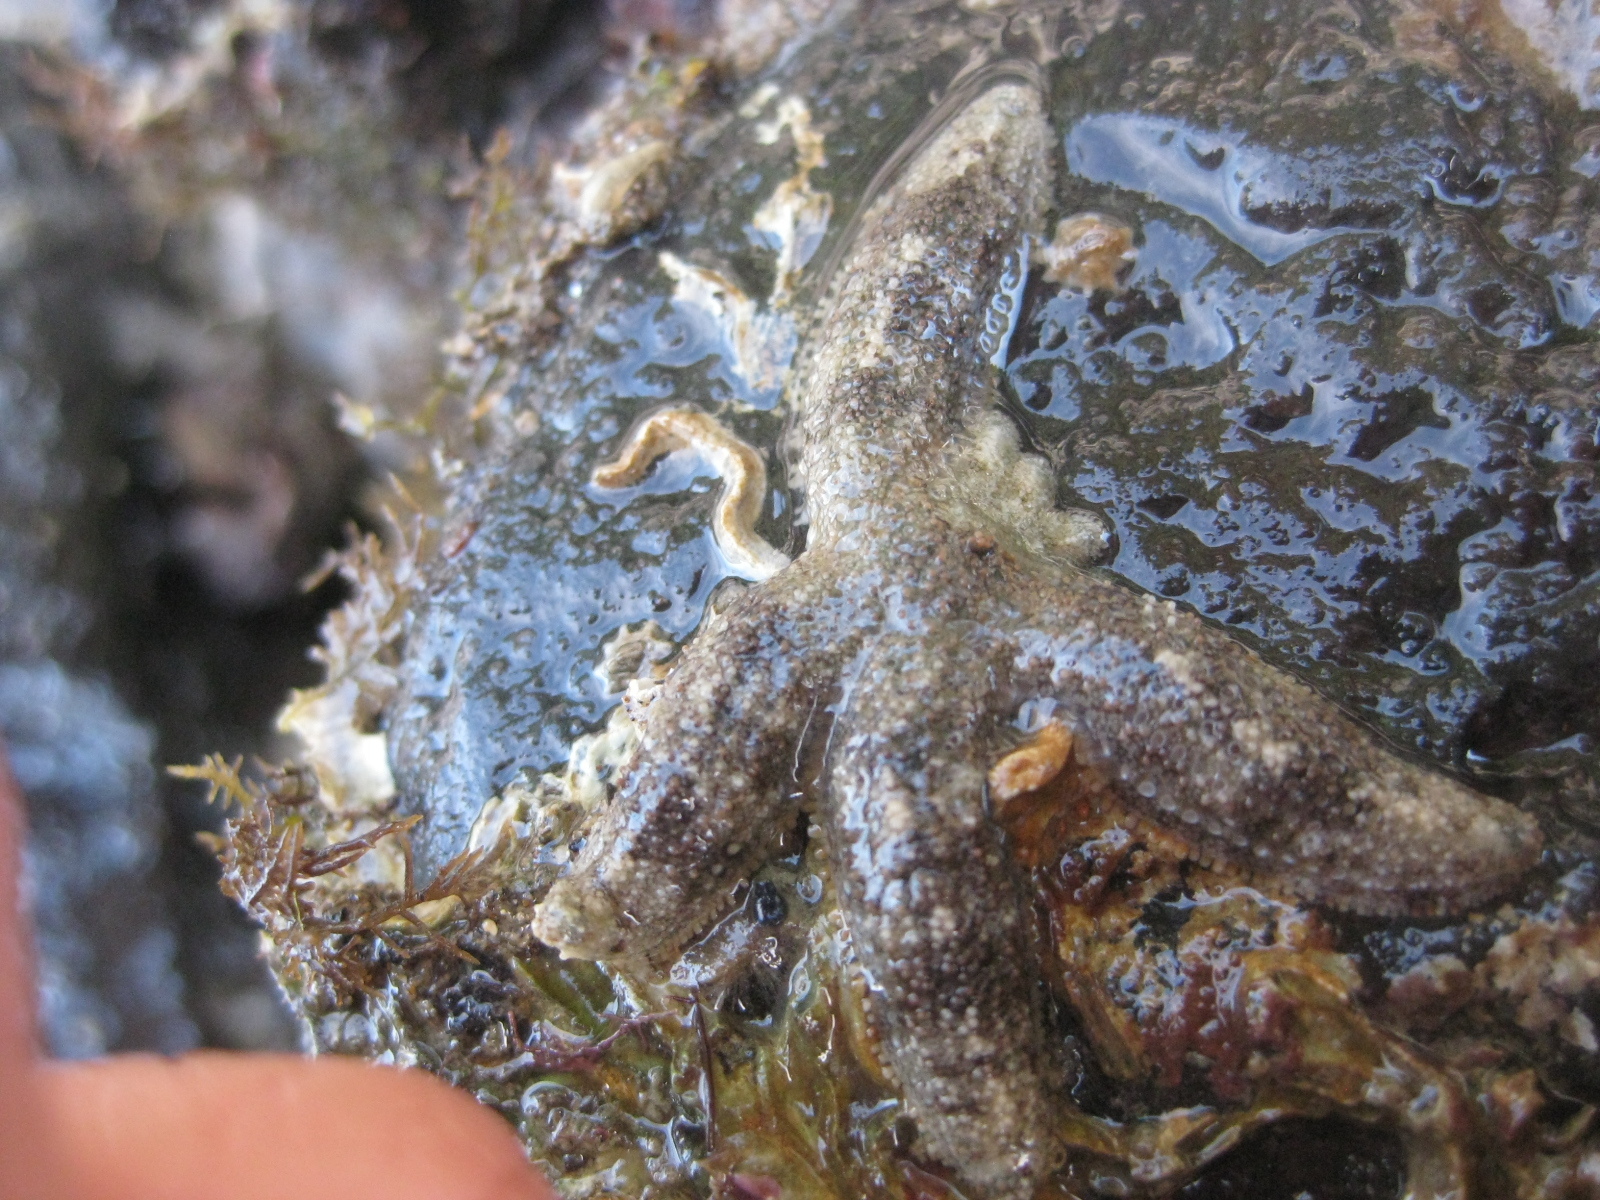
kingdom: Animalia
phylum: Echinodermata
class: Asteroidea
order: Forcipulatida
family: Stichasteridae
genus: Allostichaster
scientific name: Allostichaster polyplax
